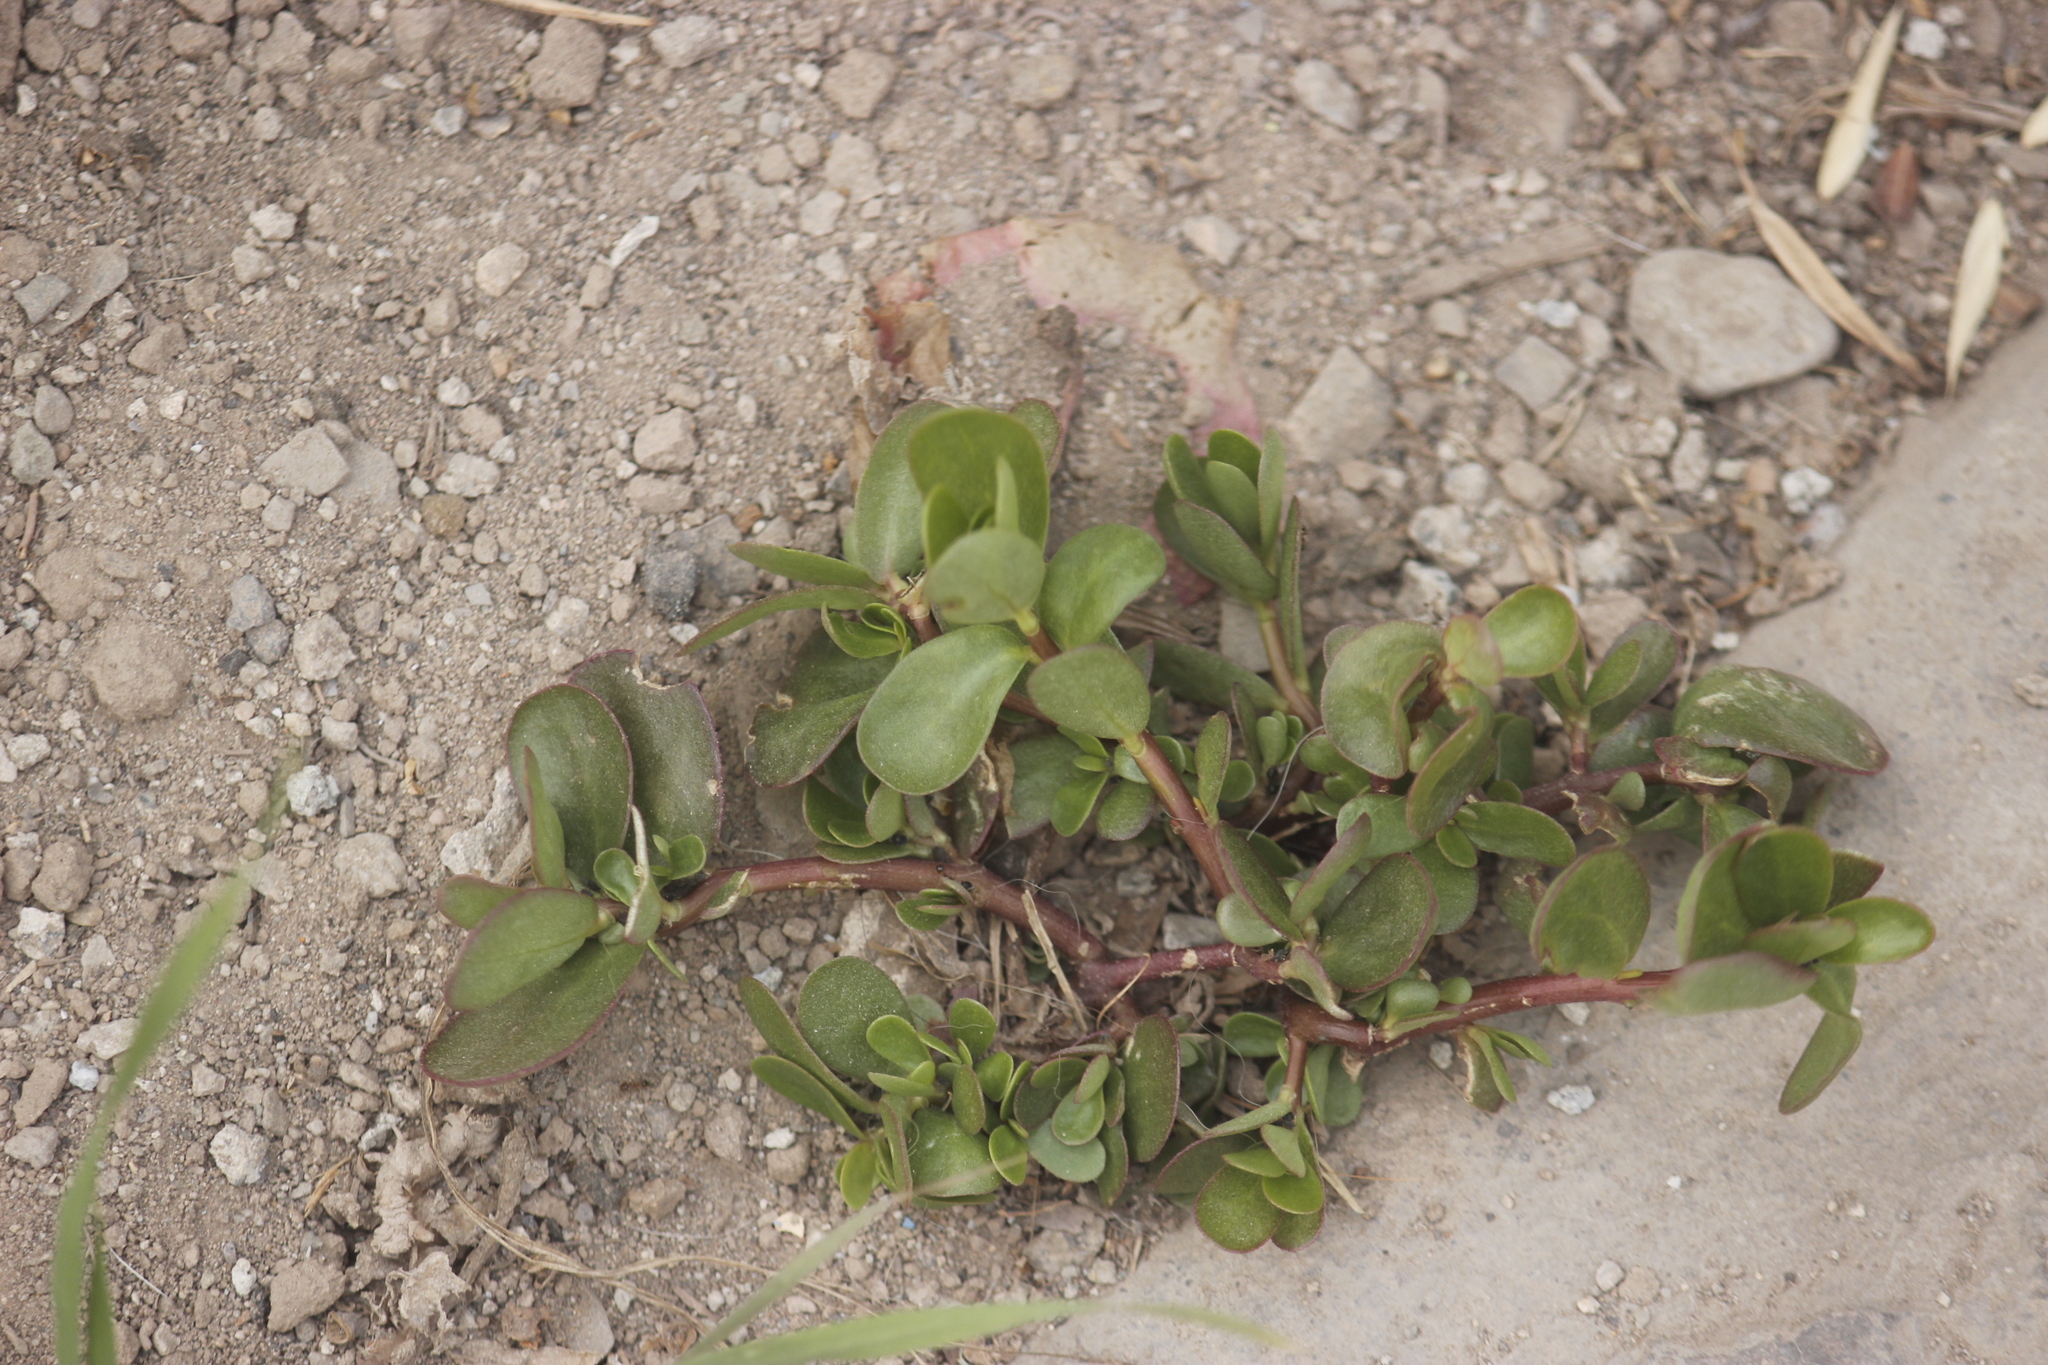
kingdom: Plantae
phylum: Tracheophyta
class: Magnoliopsida
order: Caryophyllales
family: Portulacaceae
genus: Portulaca
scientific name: Portulaca oleracea
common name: Common purslane
